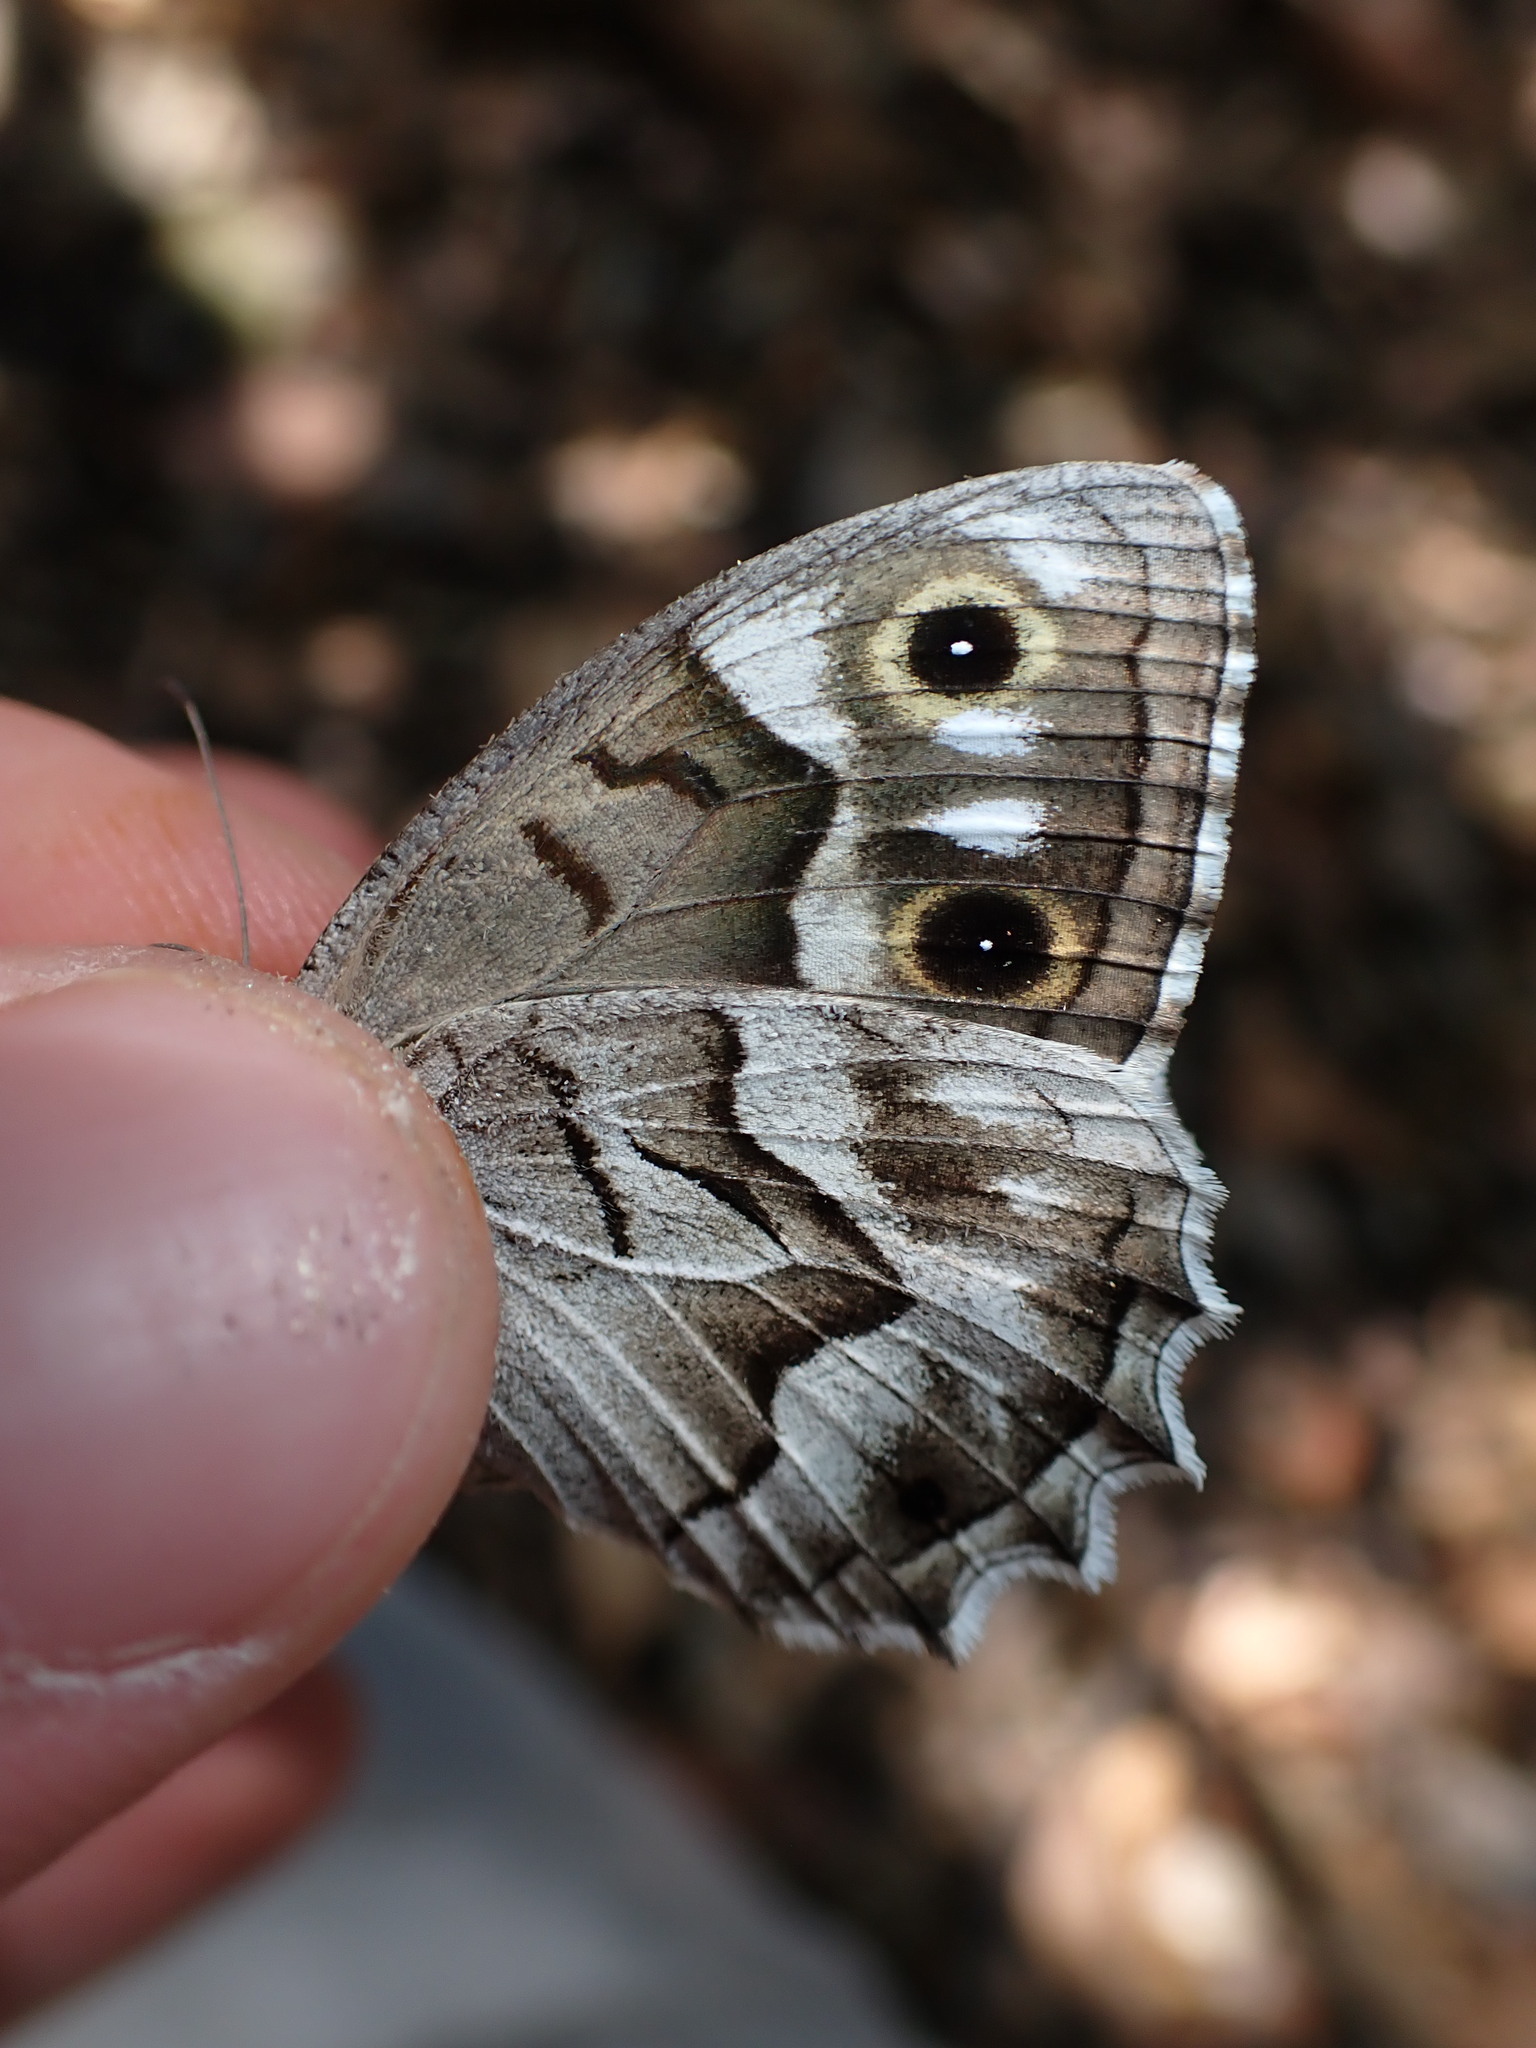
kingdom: Animalia
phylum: Arthropoda
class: Insecta
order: Lepidoptera
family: Nymphalidae
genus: Hipparchia
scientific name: Hipparchia fidia
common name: Striped grayling
